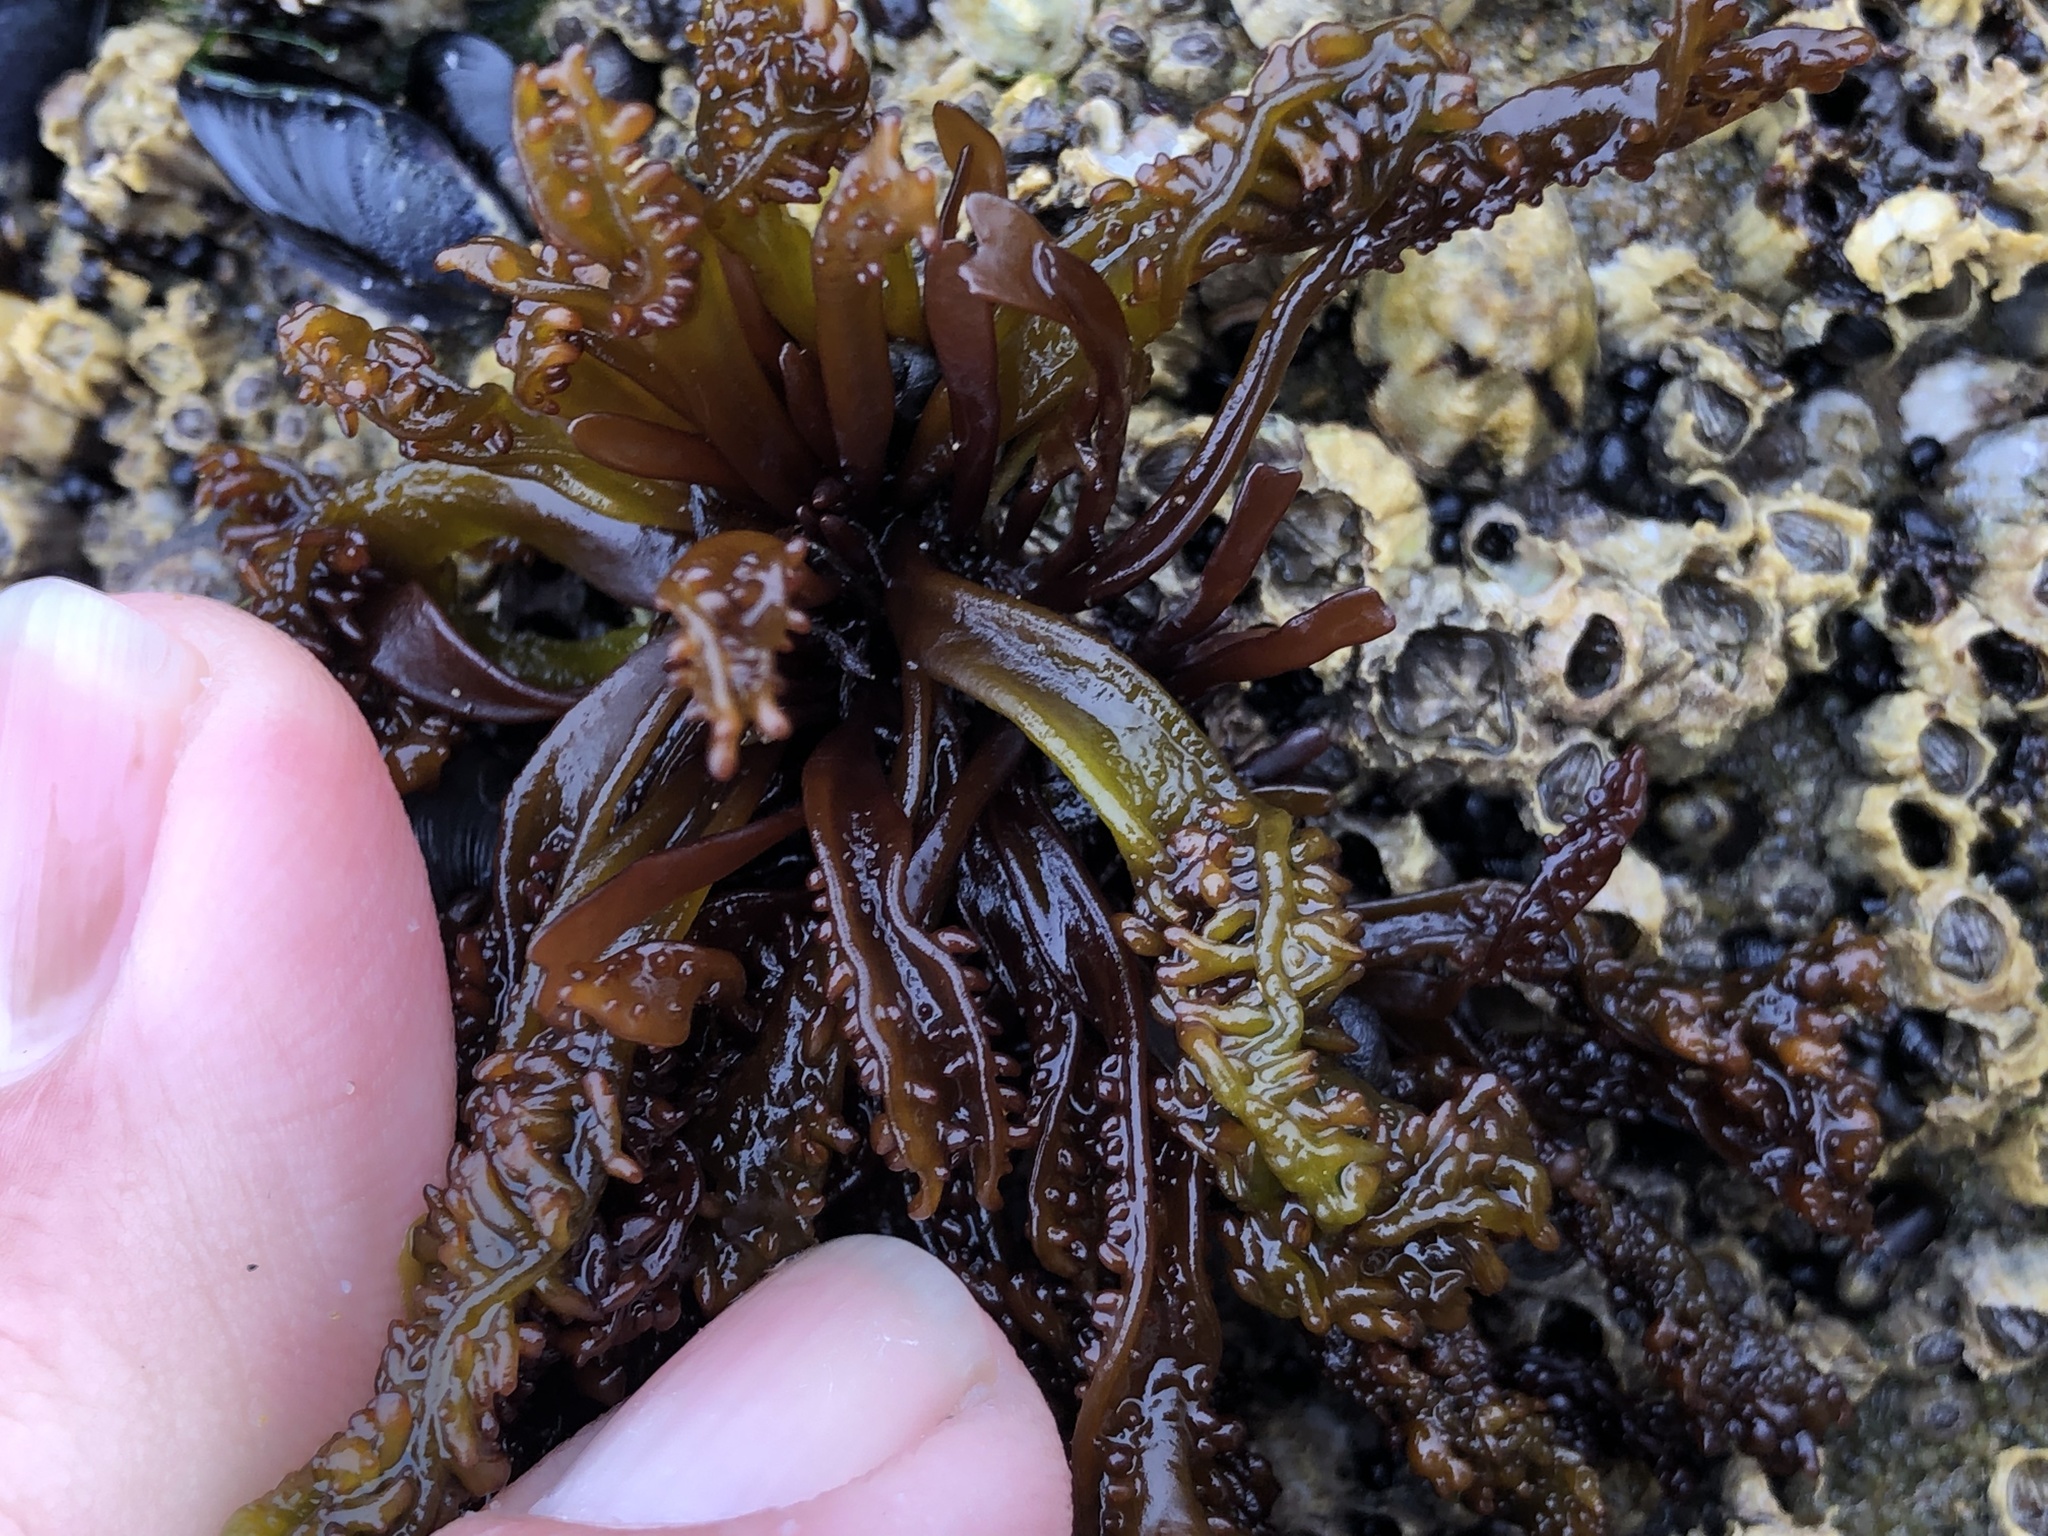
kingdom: Plantae
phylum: Rhodophyta
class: Florideophyceae
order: Gigartinales
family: Phyllophoraceae
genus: Mastocarpus
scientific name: Mastocarpus papillatus
